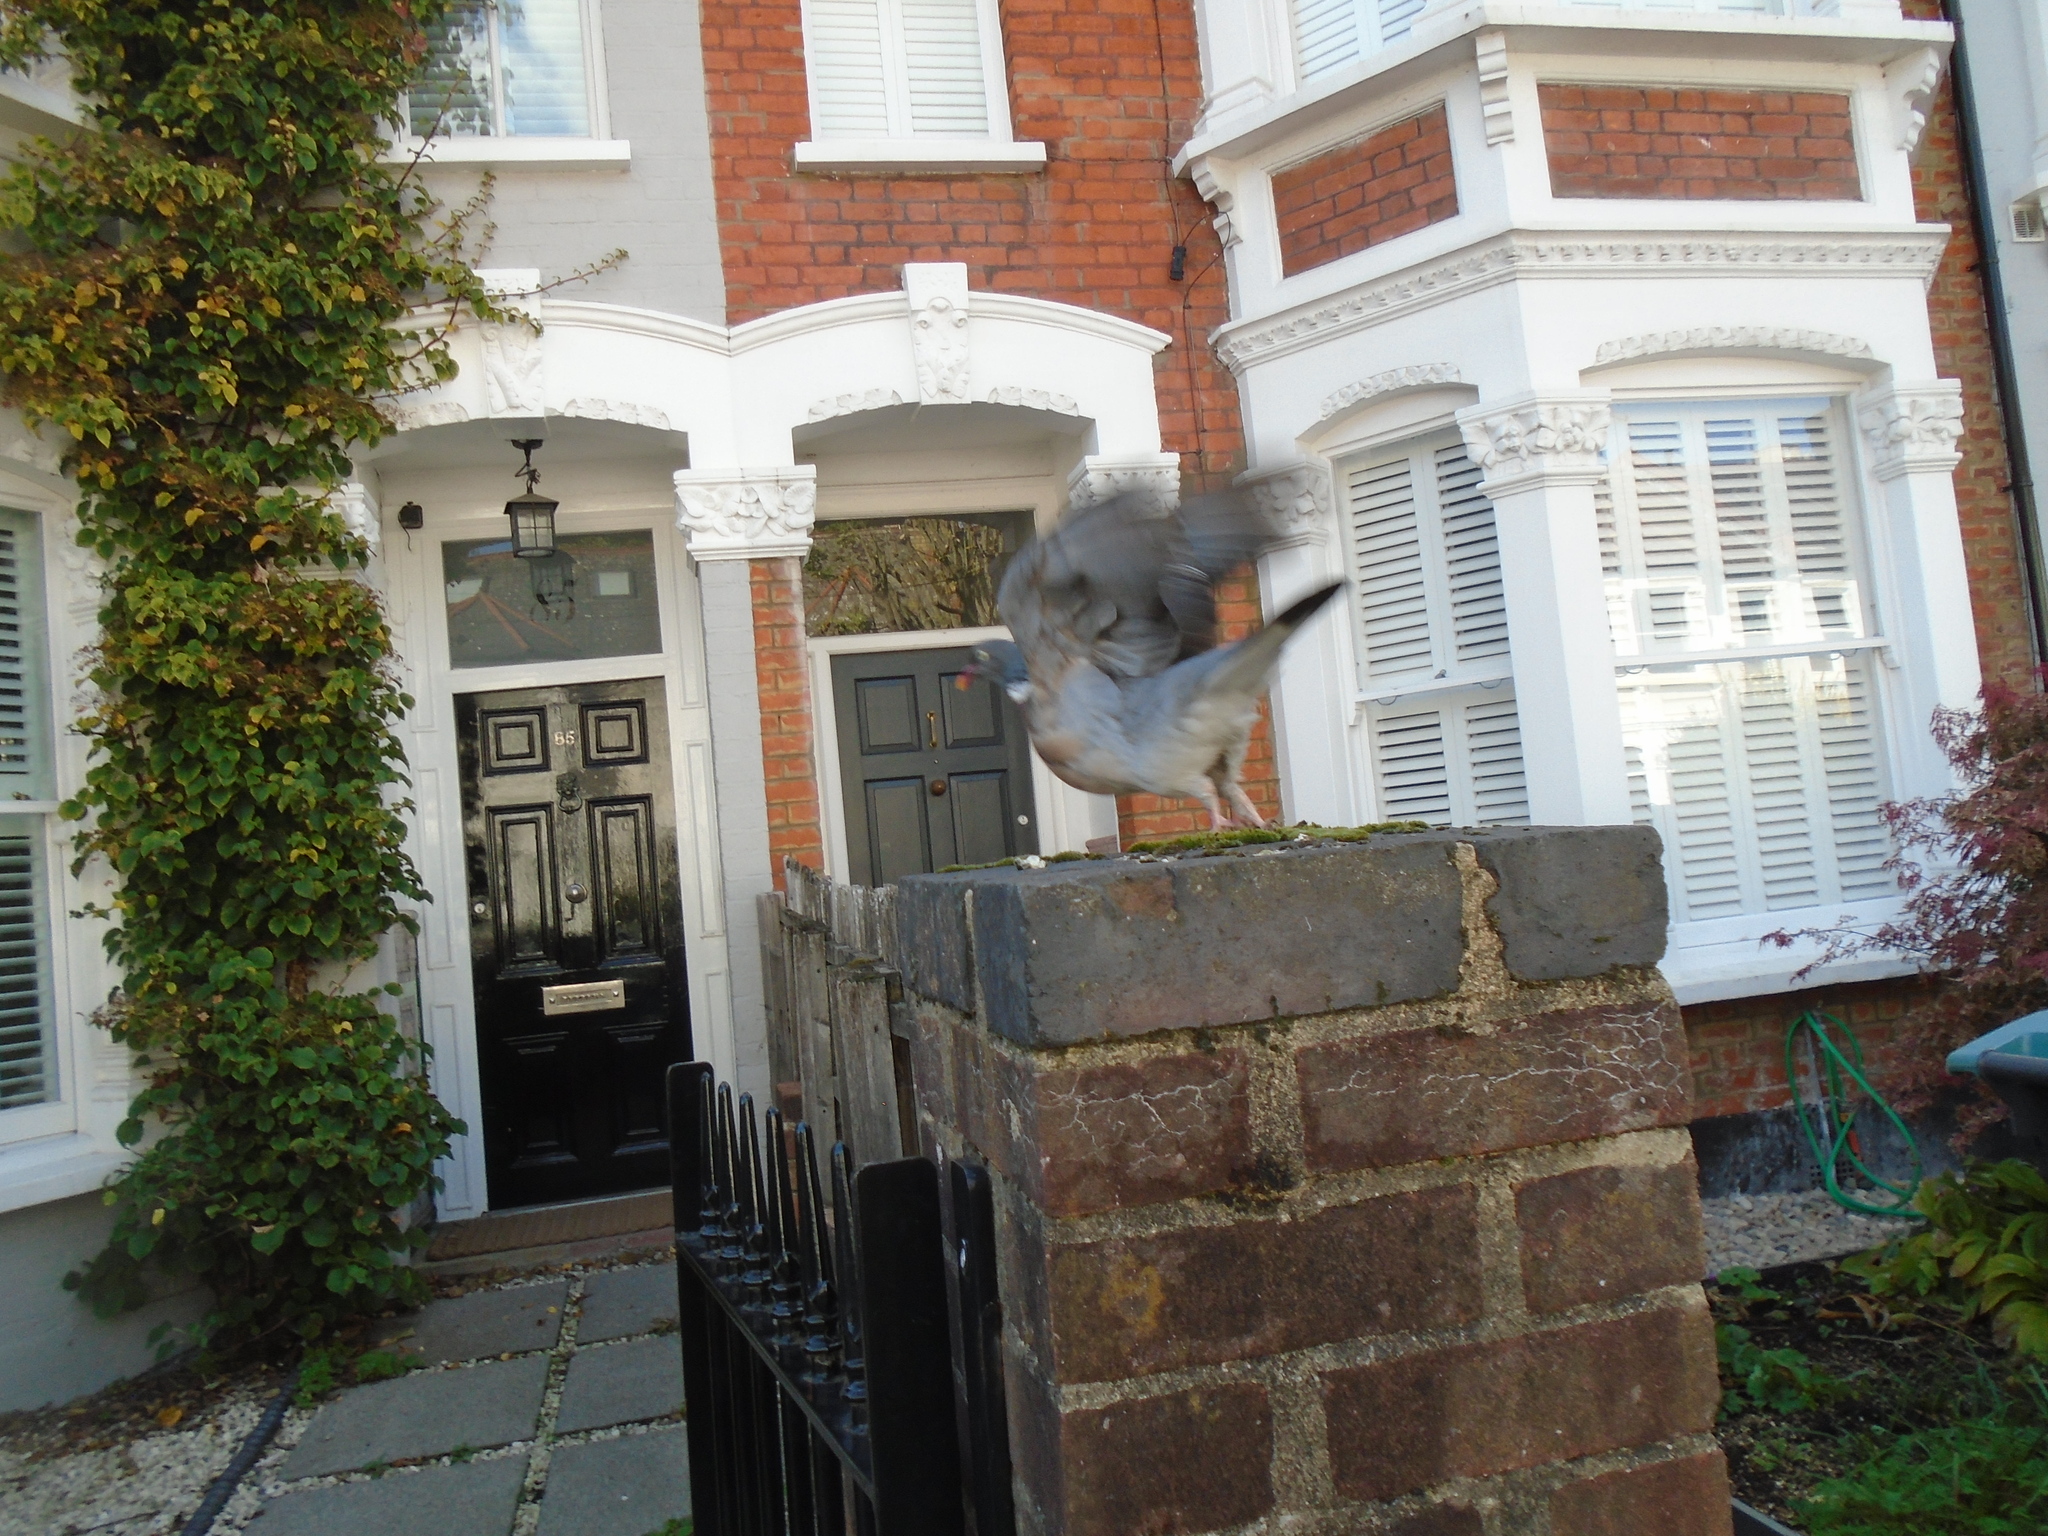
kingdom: Animalia
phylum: Chordata
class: Aves
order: Columbiformes
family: Columbidae
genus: Columba
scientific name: Columba palumbus
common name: Common wood pigeon
